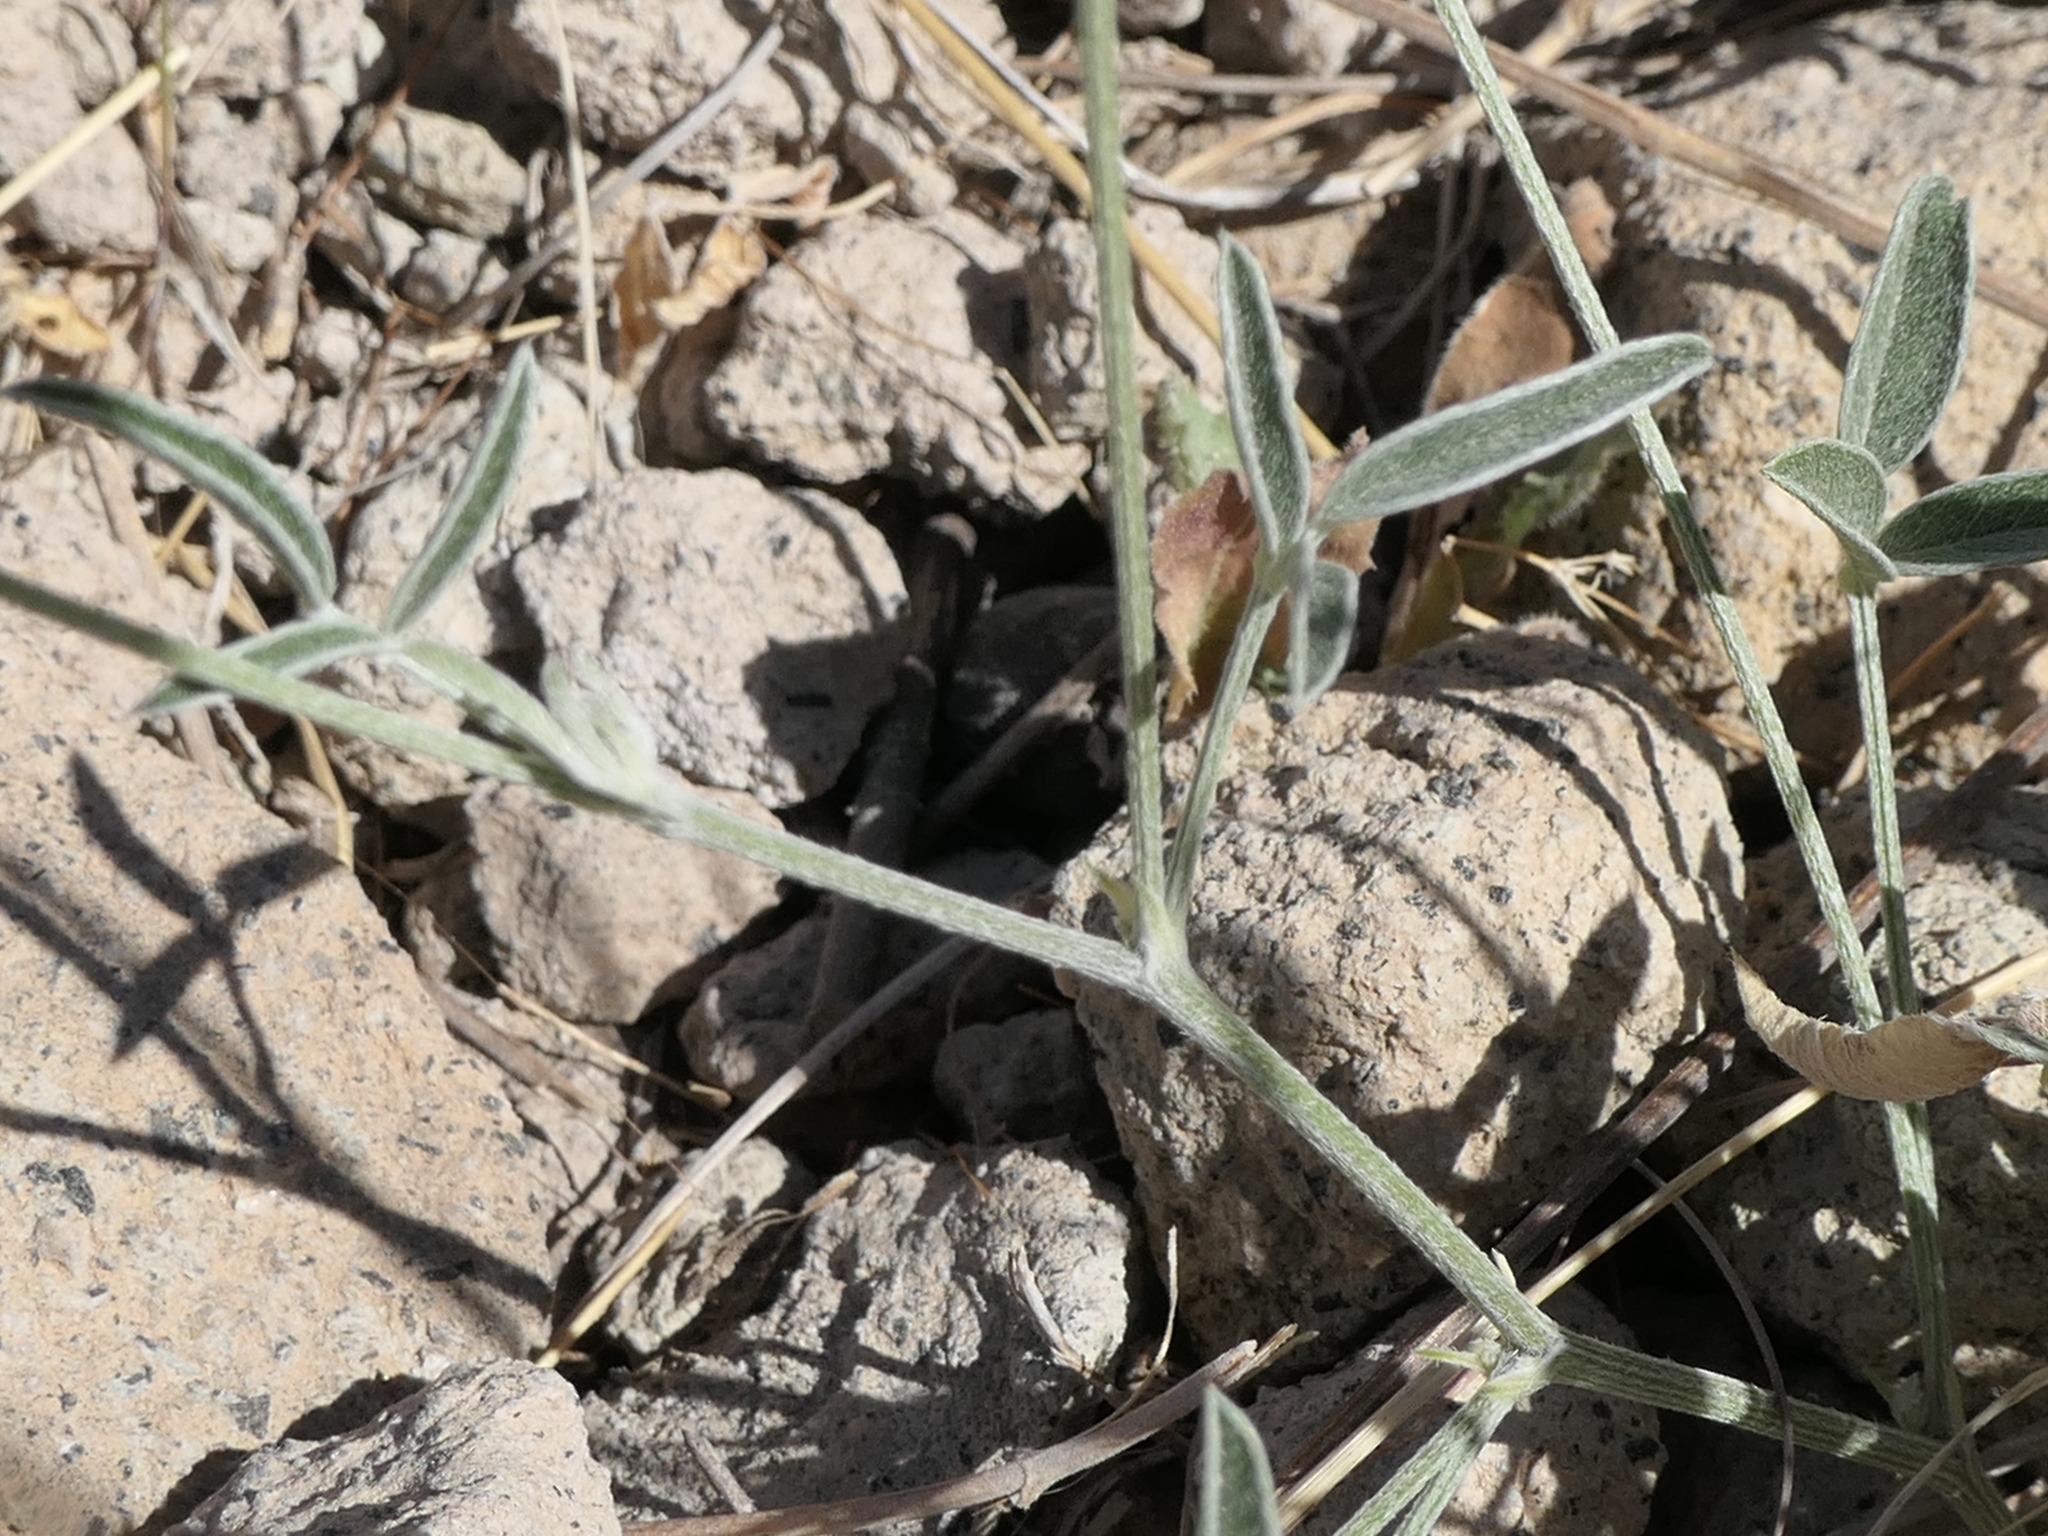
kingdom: Plantae
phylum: Tracheophyta
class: Magnoliopsida
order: Fabales
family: Fabaceae
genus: Bituminaria
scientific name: Bituminaria bituminosa
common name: Arabian pea
